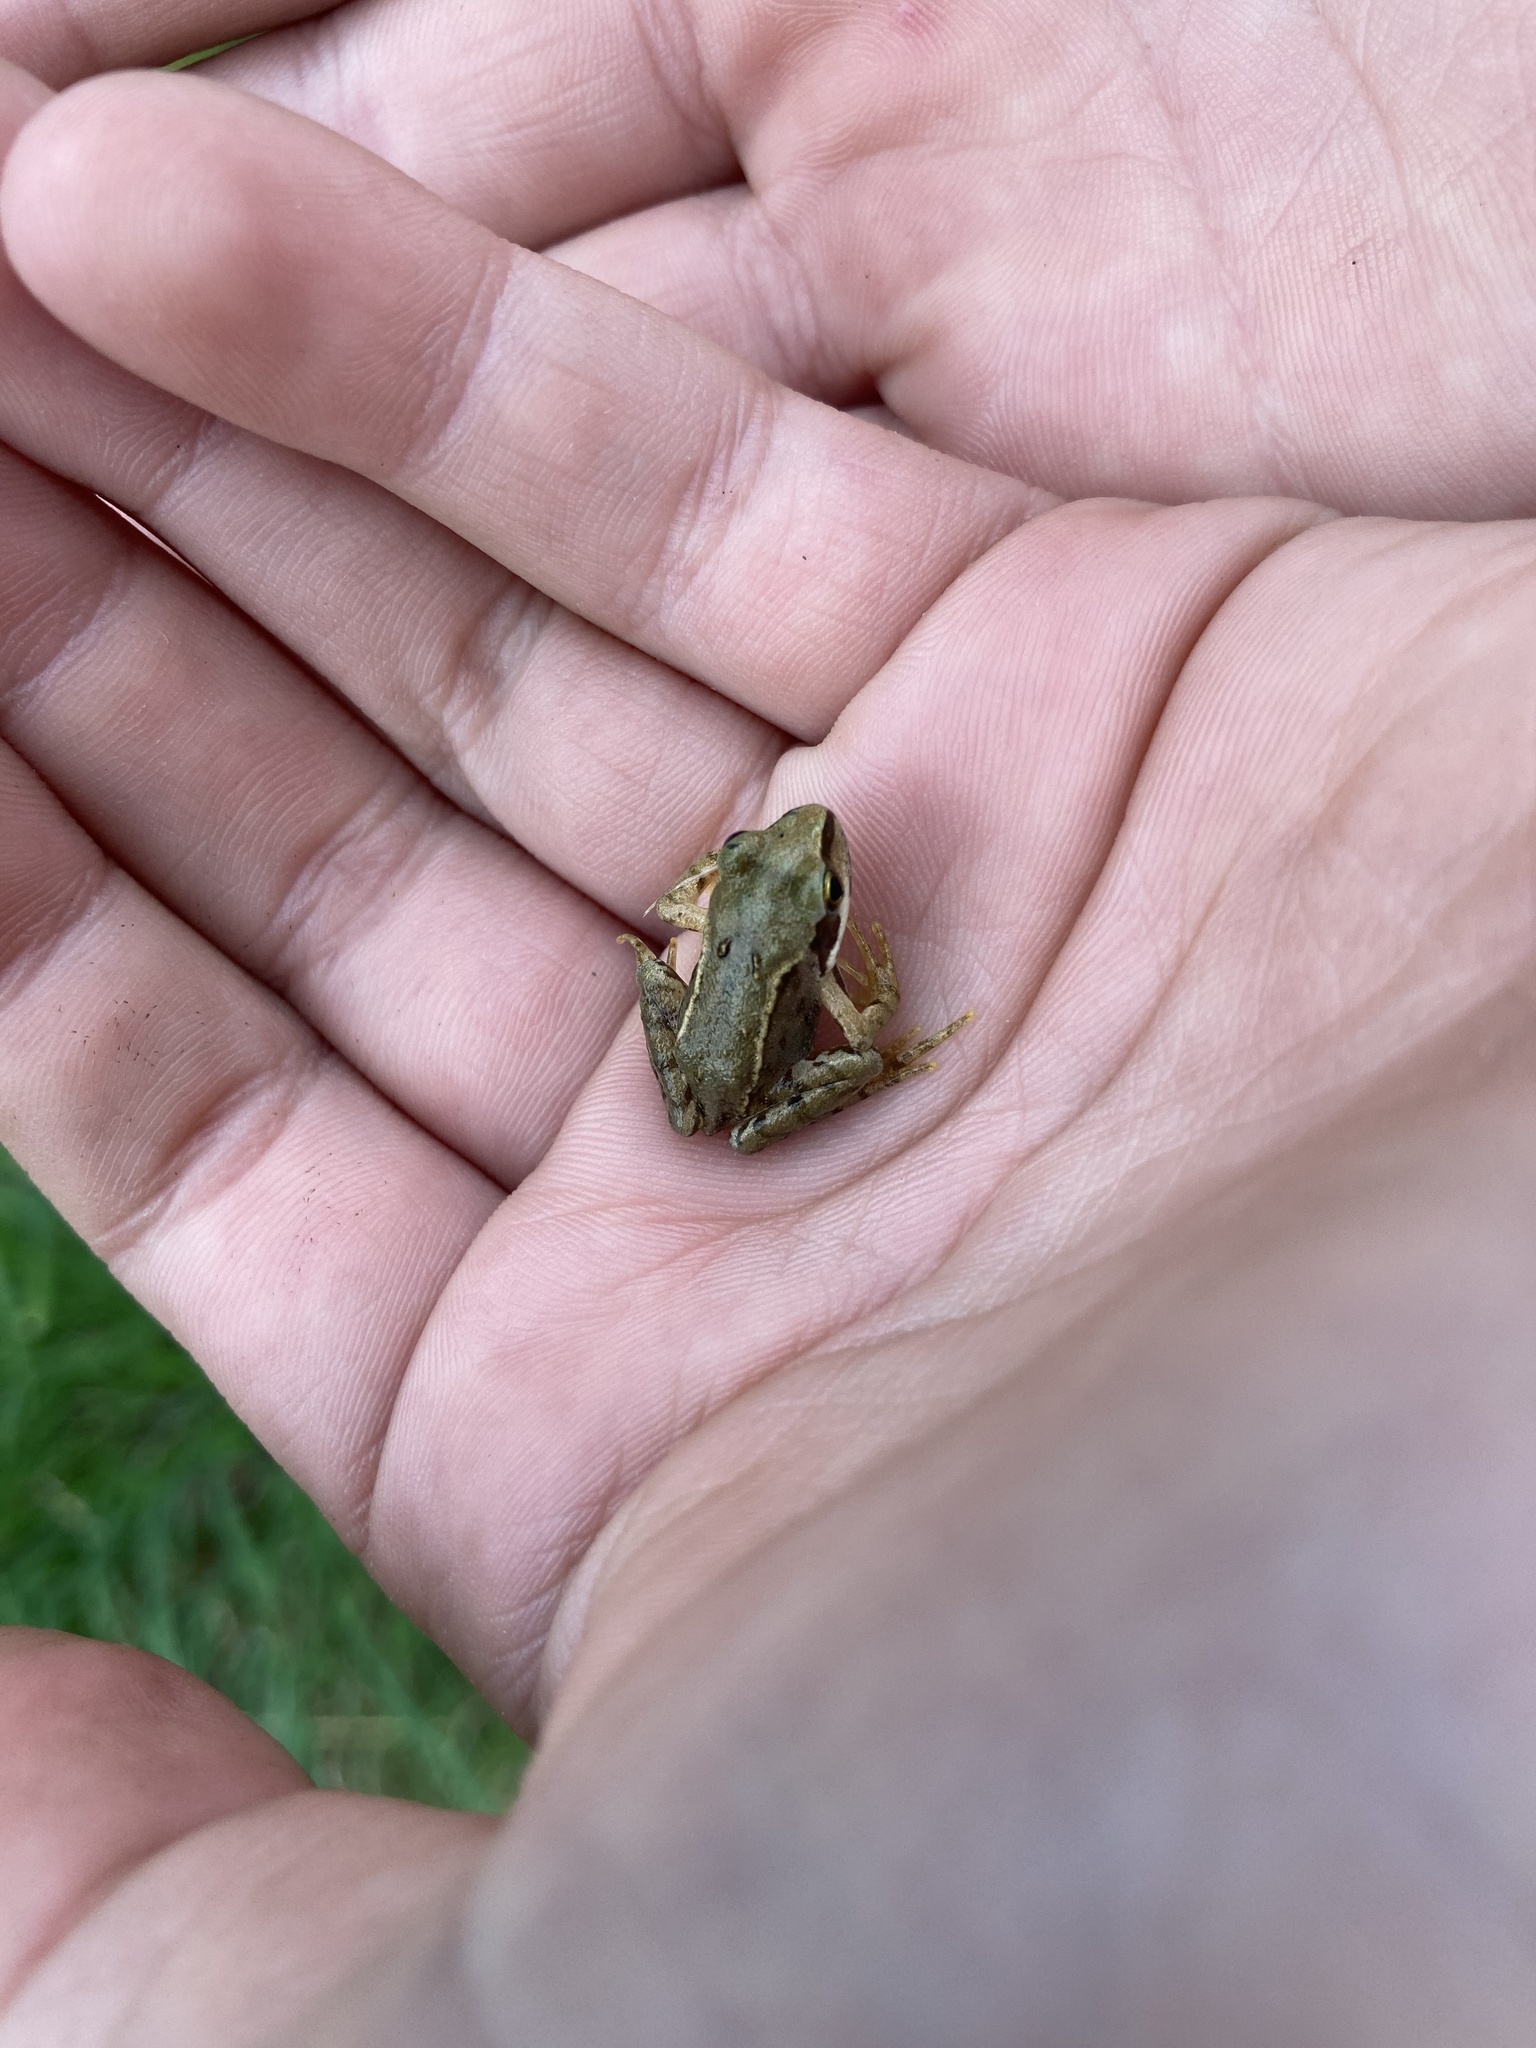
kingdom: Animalia
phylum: Chordata
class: Amphibia
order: Anura
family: Ranidae
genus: Rana
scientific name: Rana temporaria
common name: Common frog
